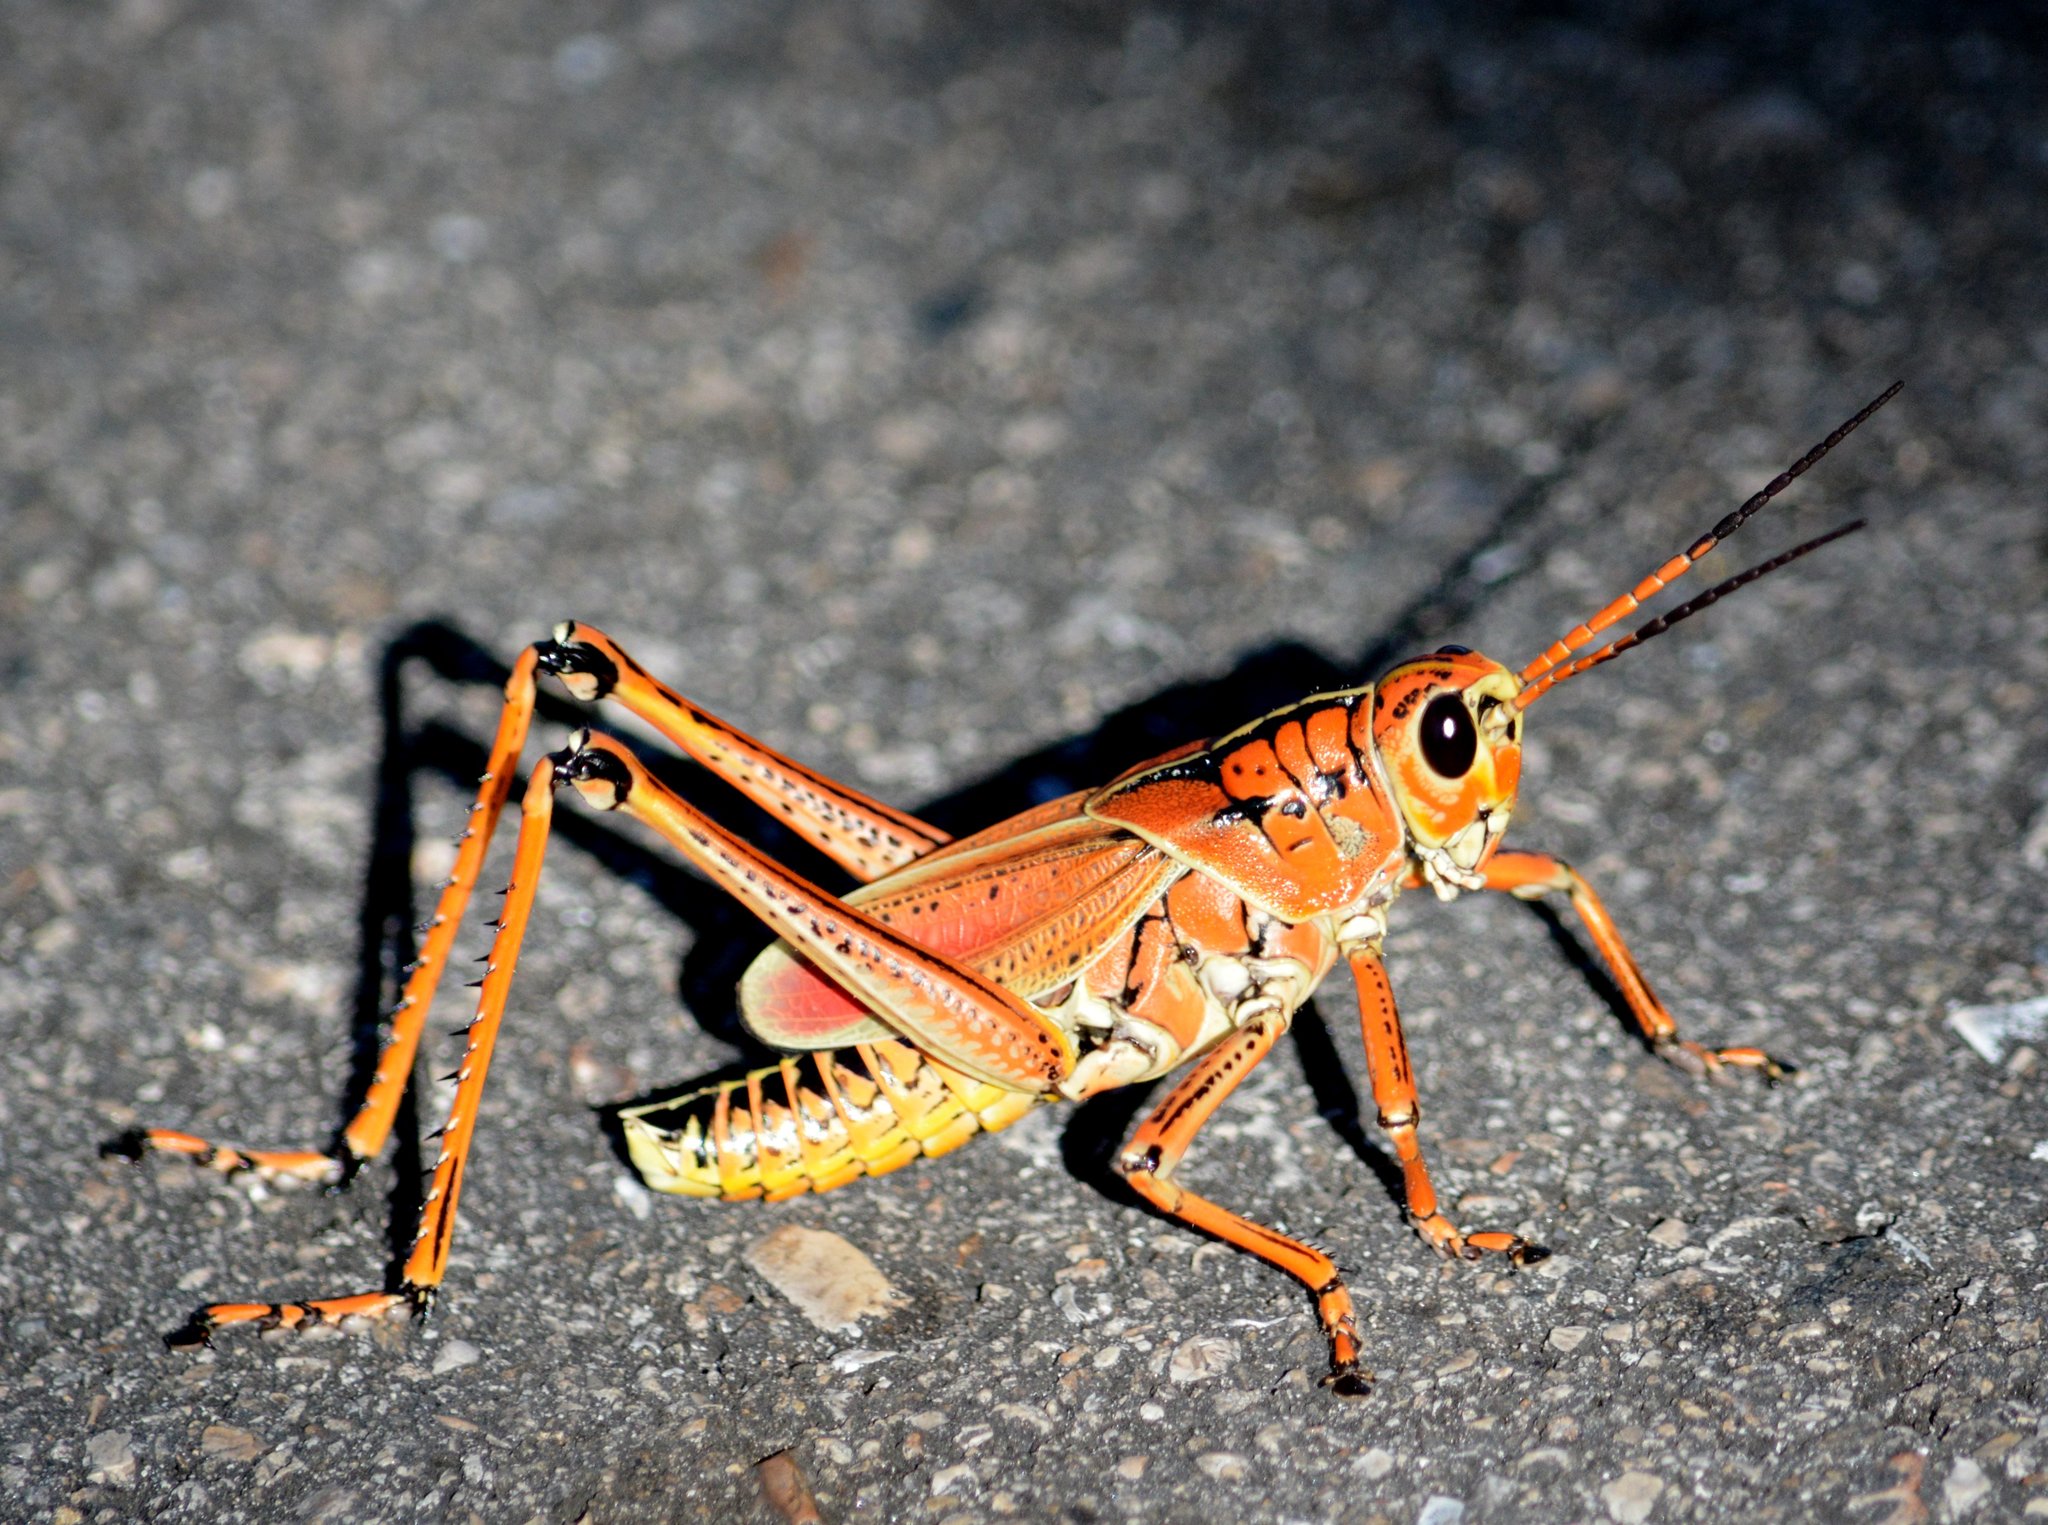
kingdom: Animalia
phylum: Arthropoda
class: Insecta
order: Orthoptera
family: Romaleidae
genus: Romalea
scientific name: Romalea microptera
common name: Eastern lubber grasshopper
